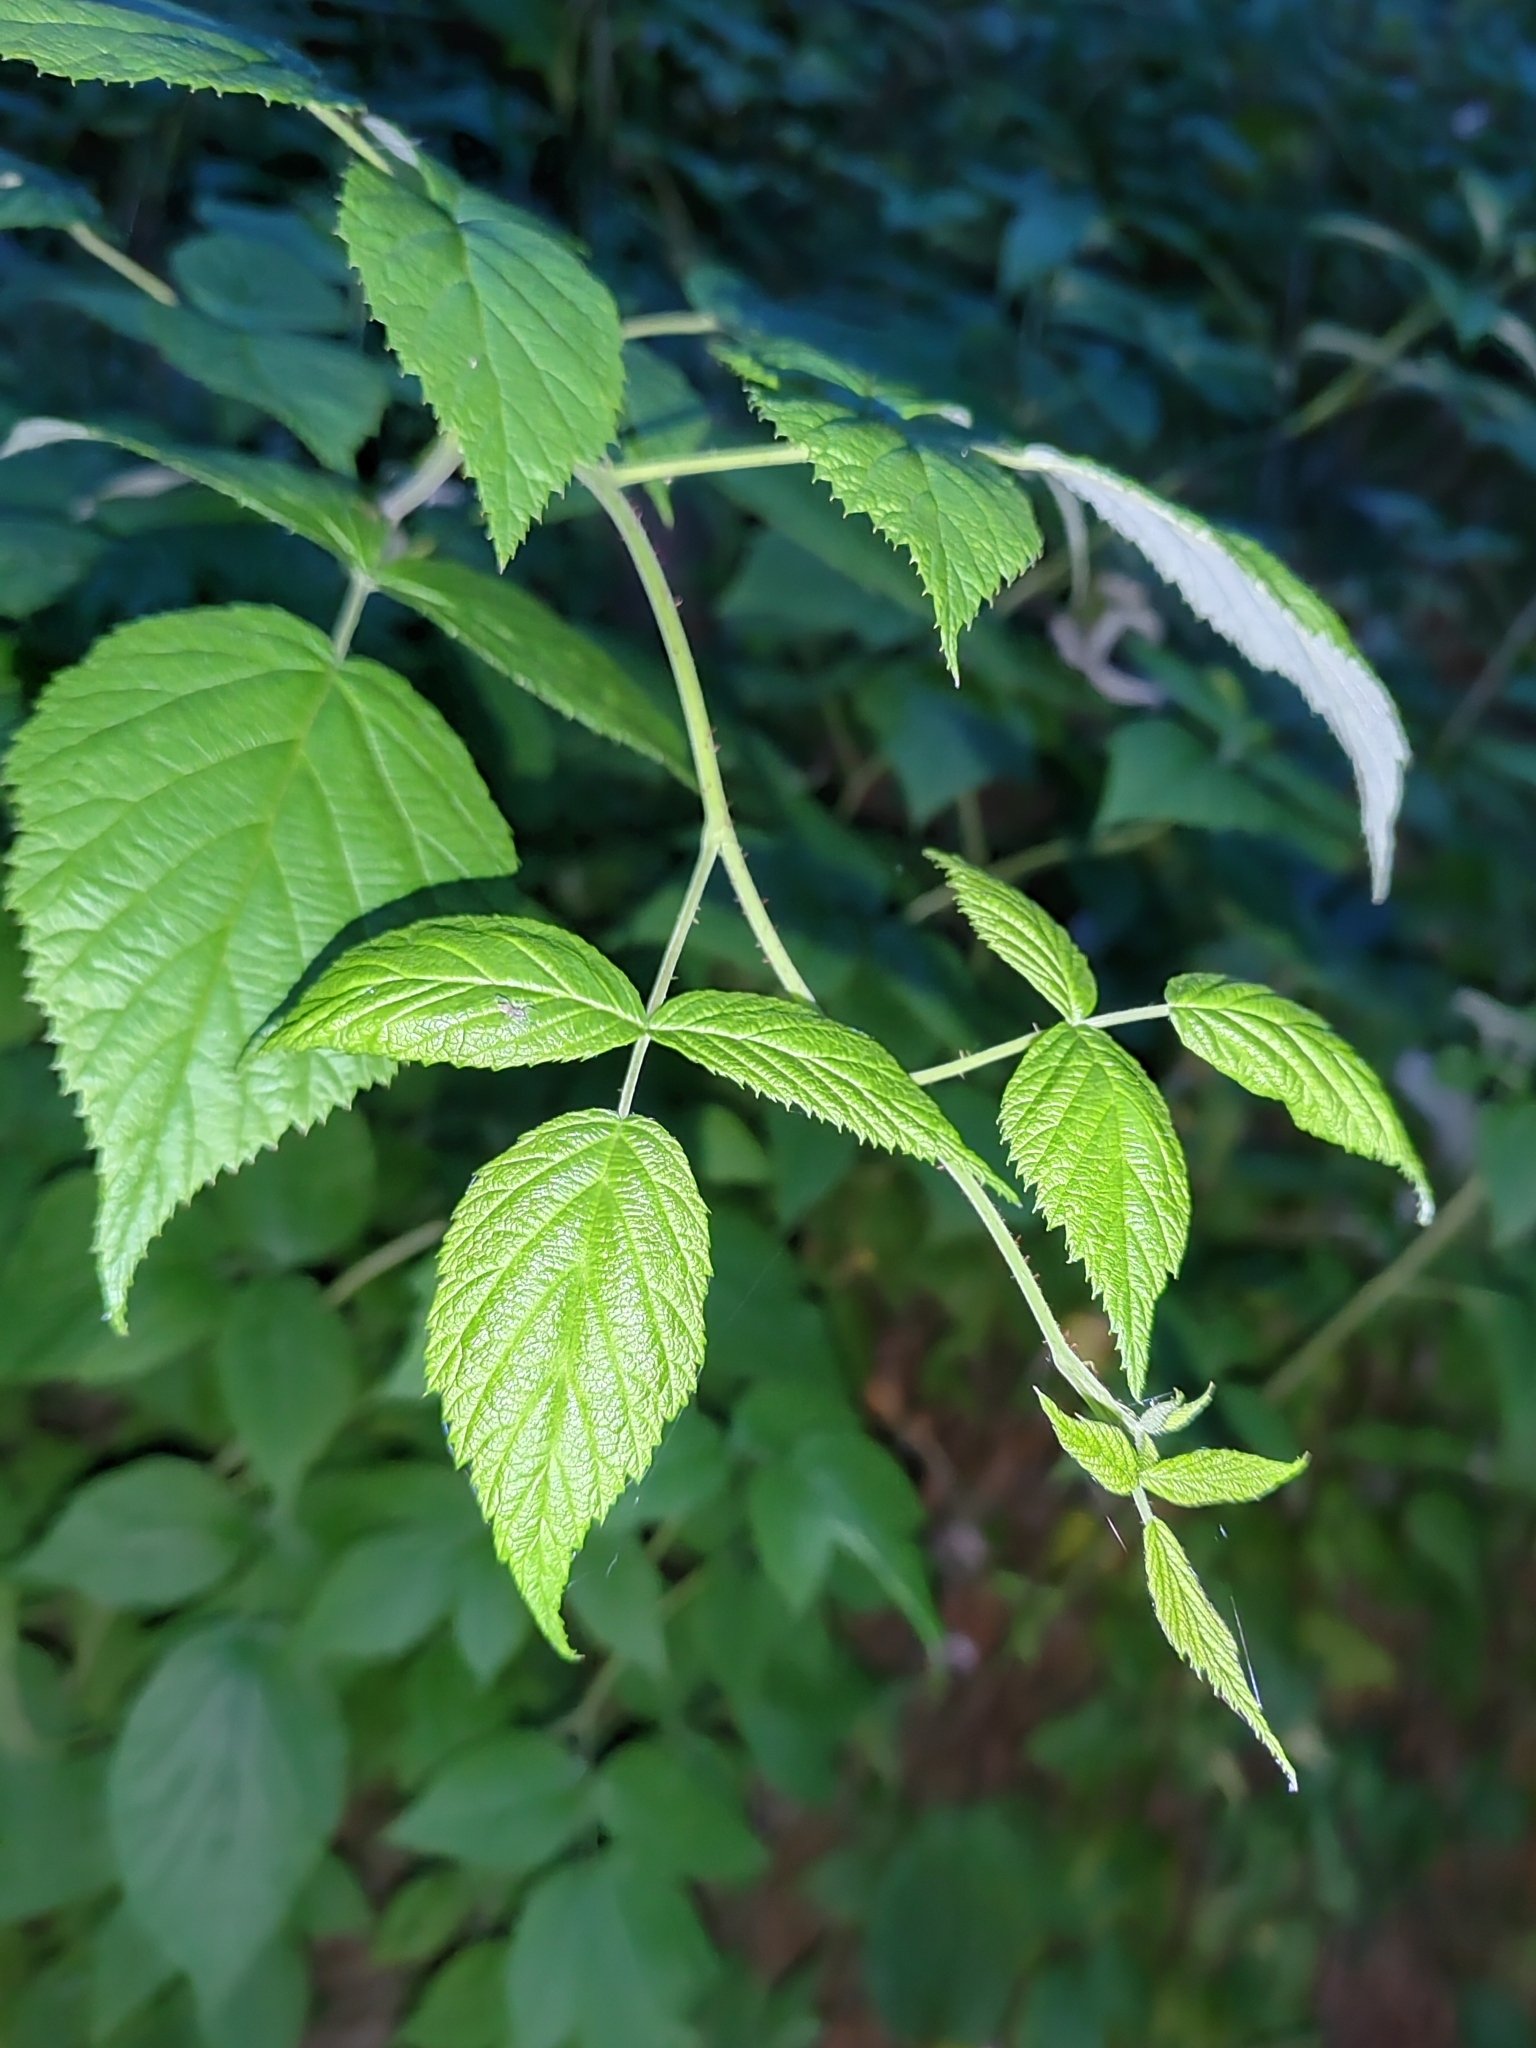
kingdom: Plantae
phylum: Tracheophyta
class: Magnoliopsida
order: Rosales
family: Rosaceae
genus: Rubus
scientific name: Rubus idaeus
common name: Raspberry
